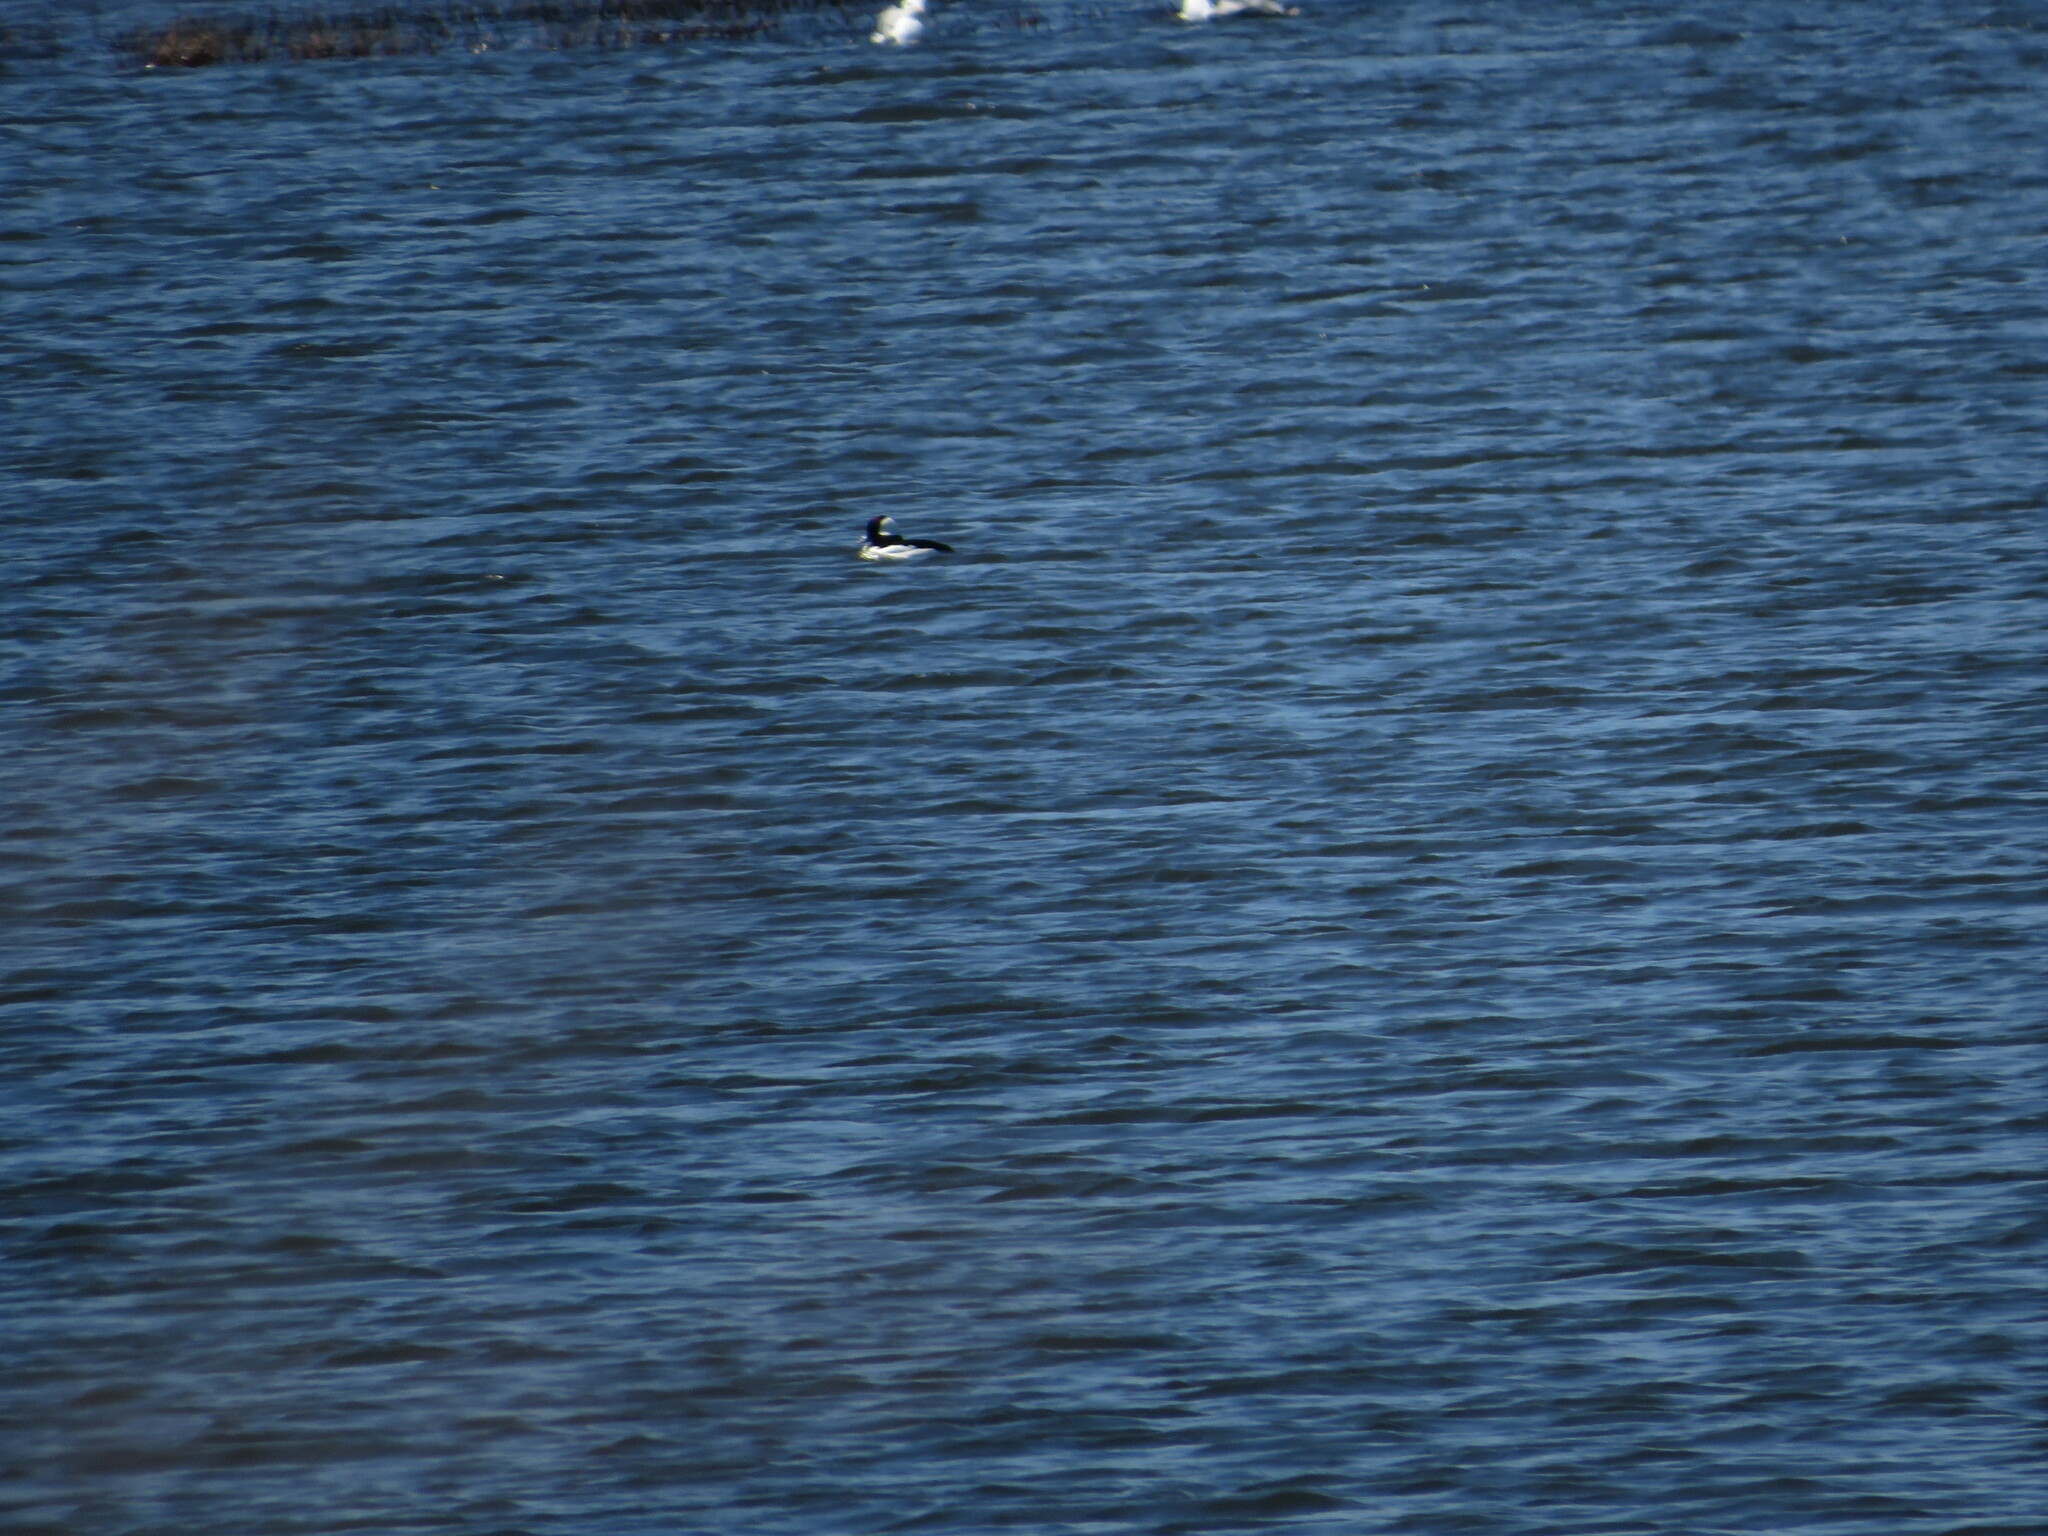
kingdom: Animalia
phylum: Chordata
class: Aves
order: Anseriformes
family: Anatidae
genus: Bucephala
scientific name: Bucephala albeola
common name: Bufflehead
